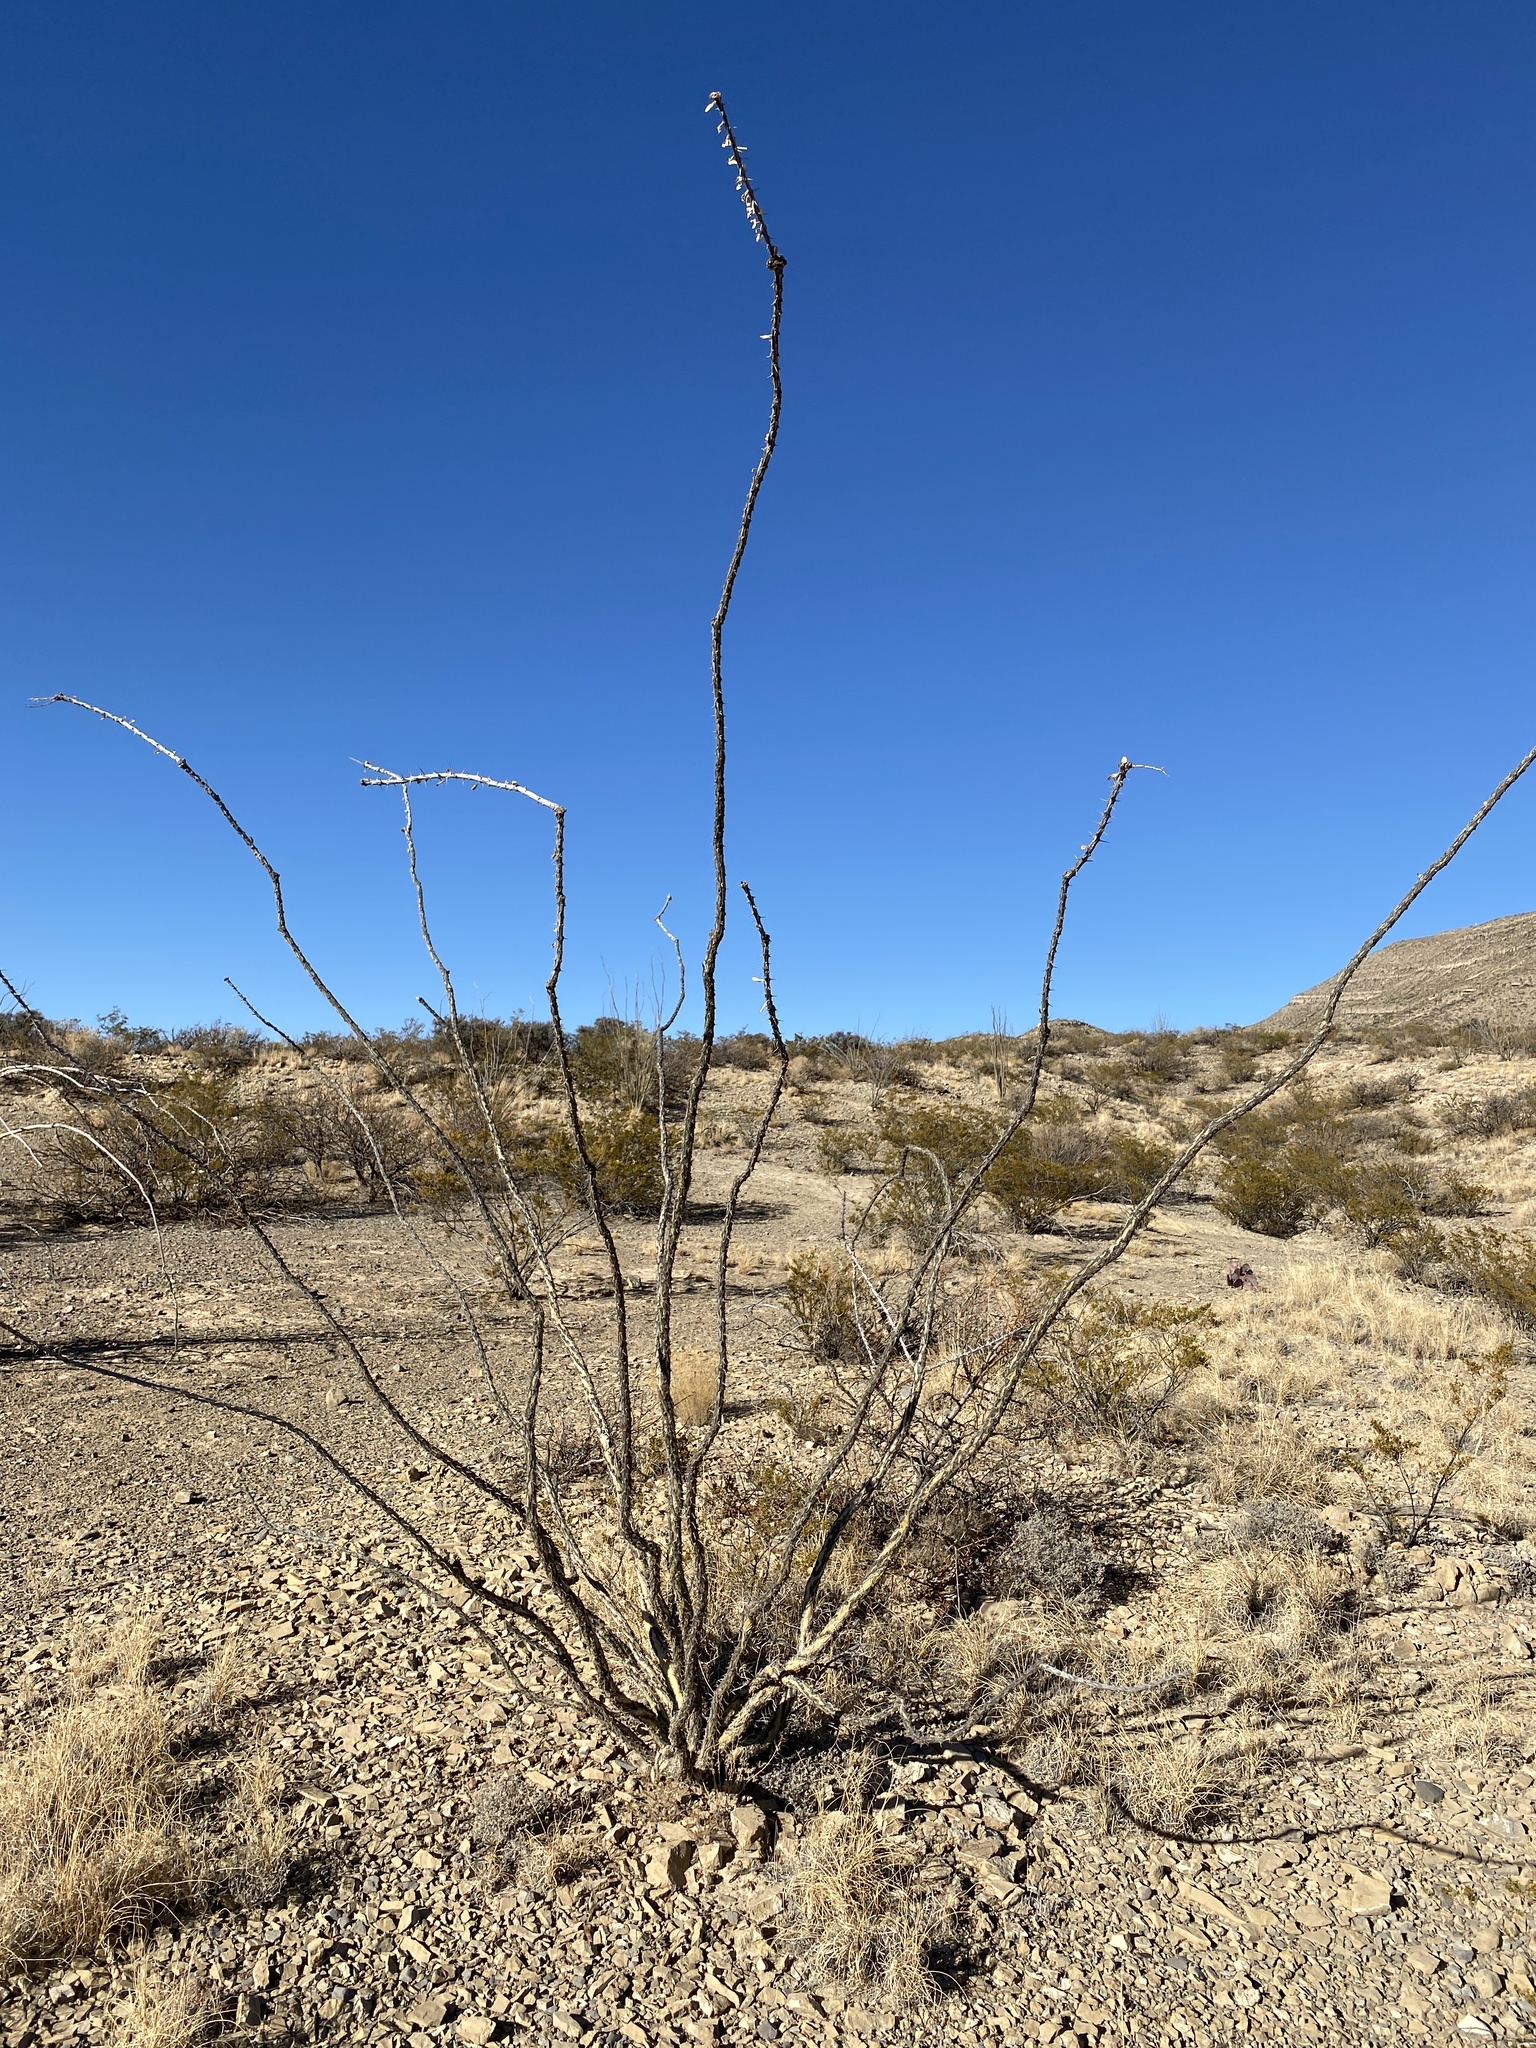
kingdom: Plantae
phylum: Tracheophyta
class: Magnoliopsida
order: Ericales
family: Fouquieriaceae
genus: Fouquieria
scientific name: Fouquieria splendens
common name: Vine-cactus
